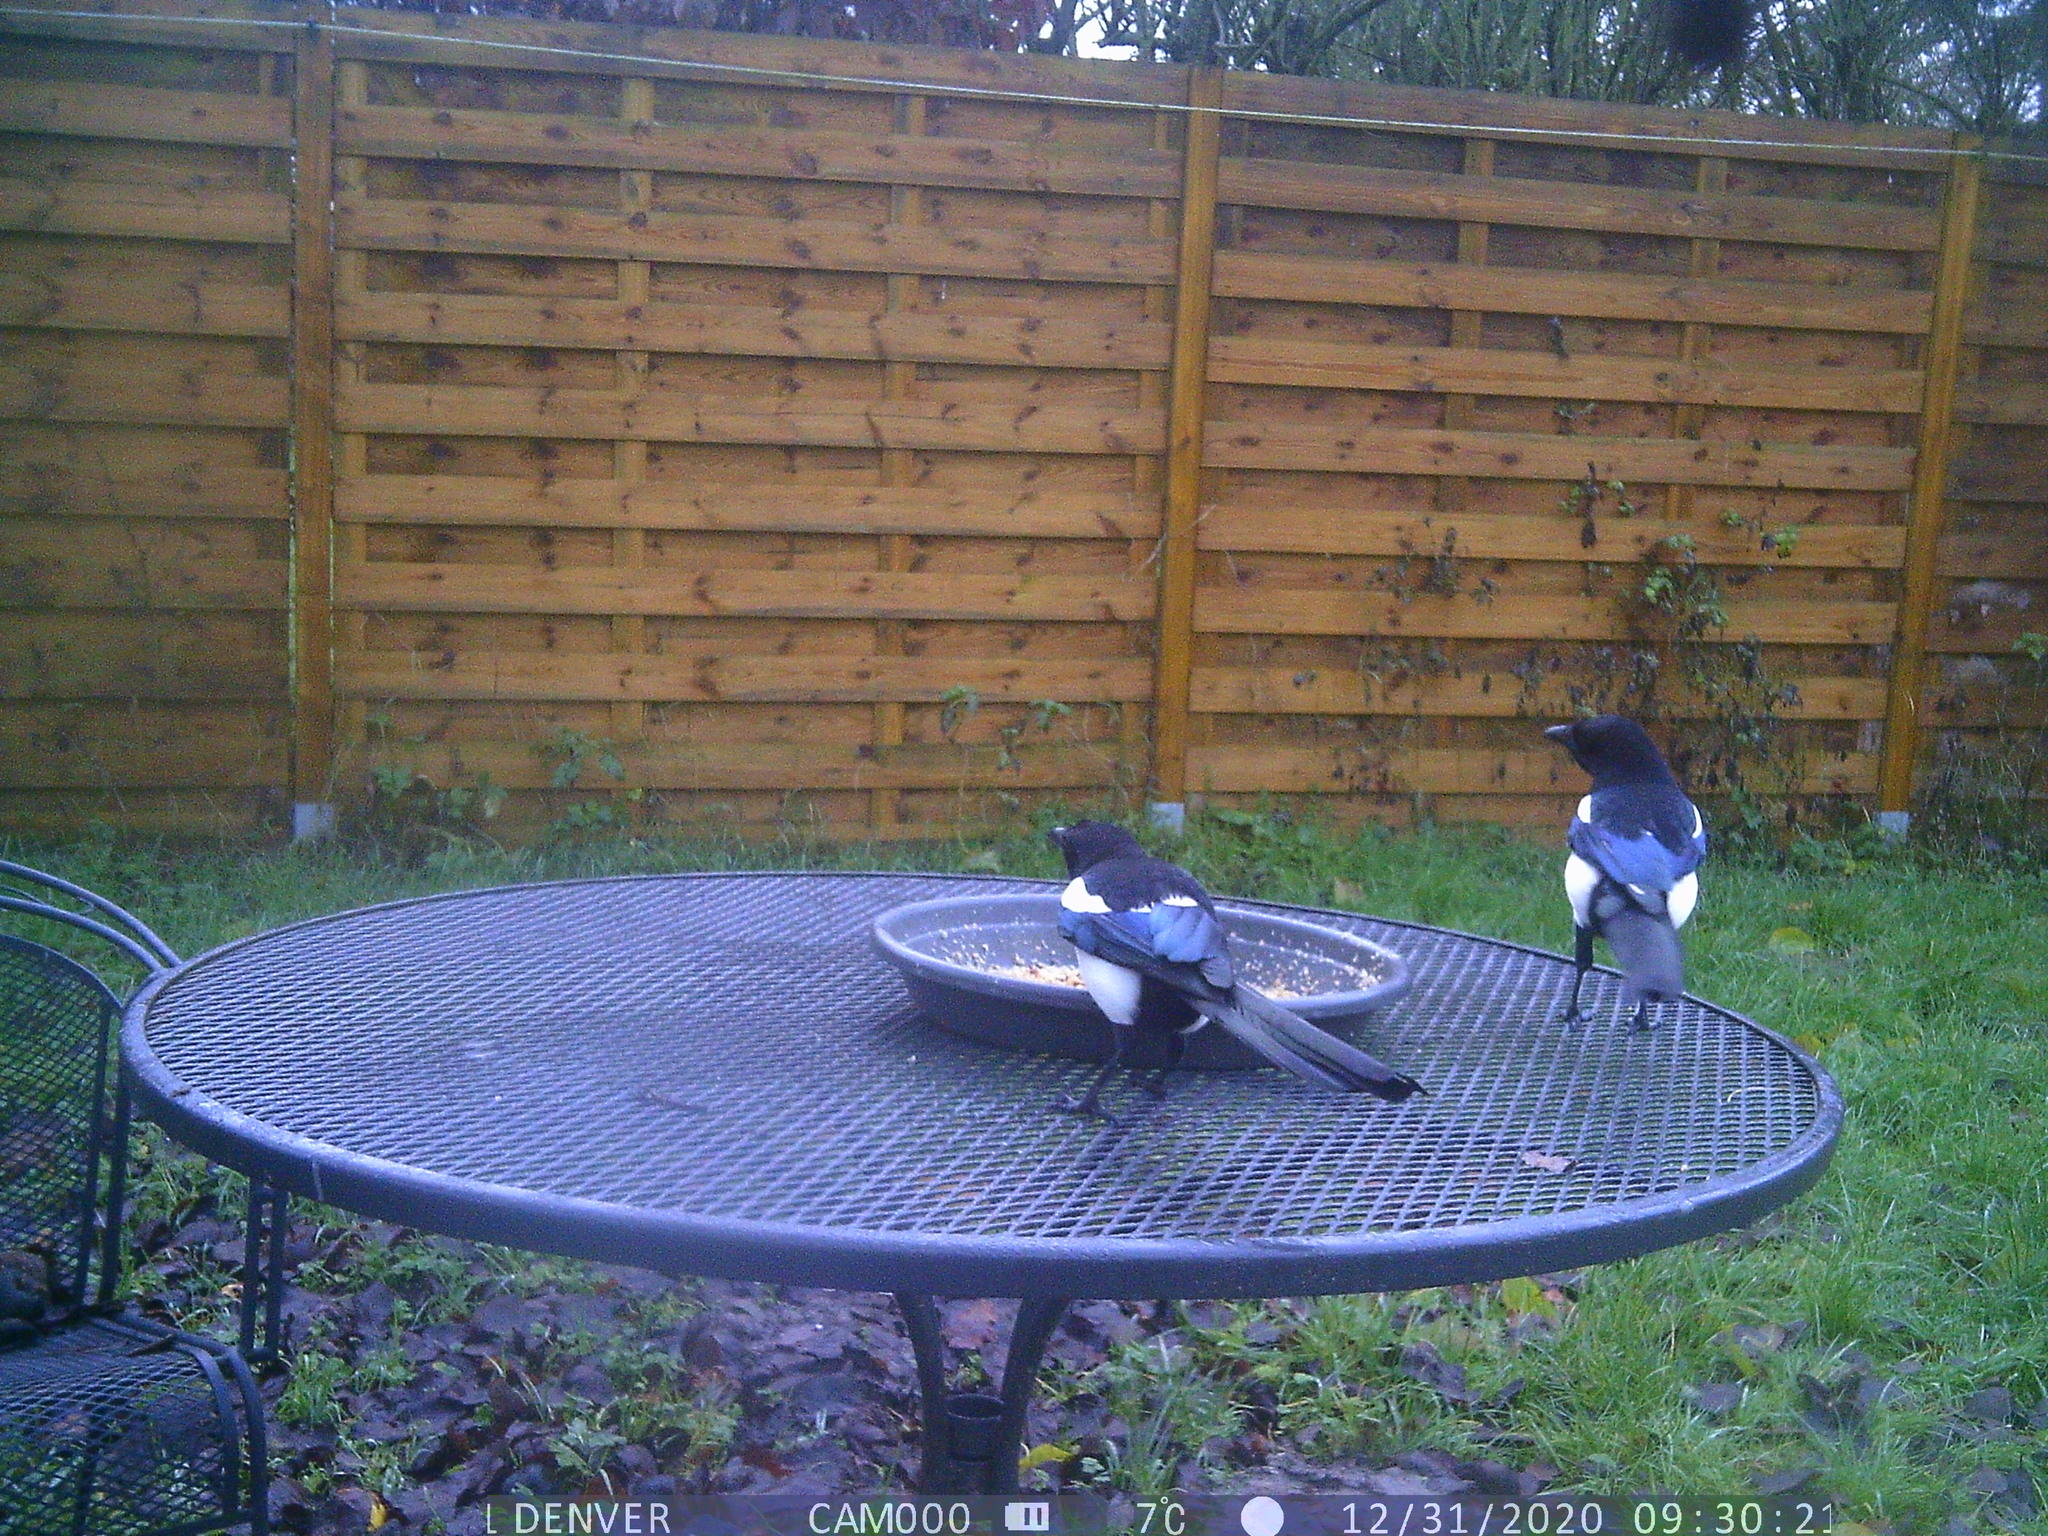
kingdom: Animalia
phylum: Chordata
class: Aves
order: Passeriformes
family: Corvidae
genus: Pica
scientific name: Pica pica
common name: Eurasian magpie
